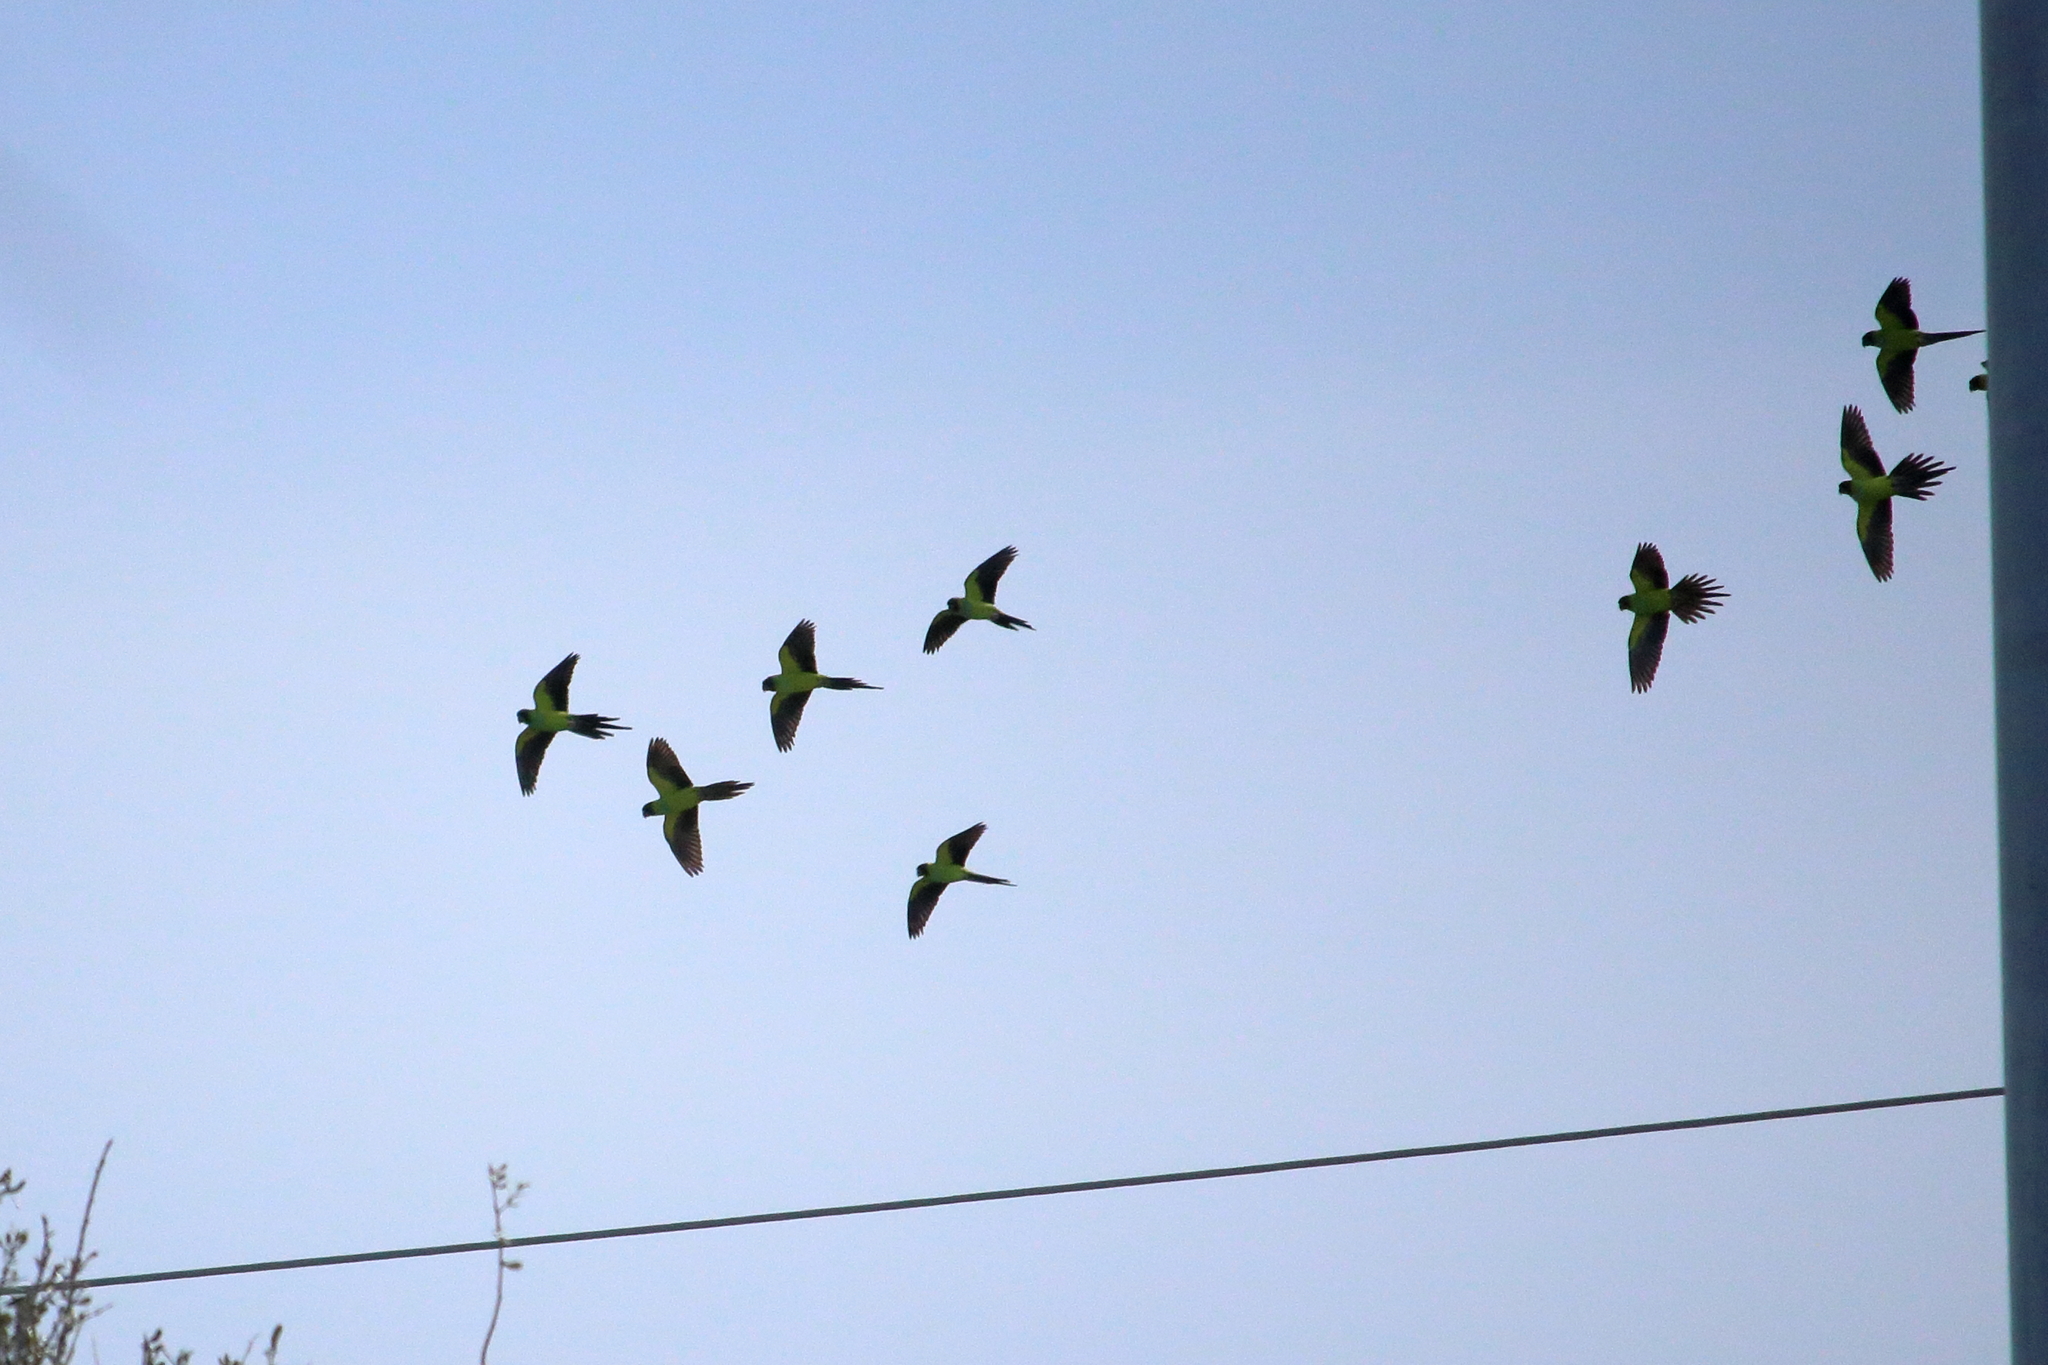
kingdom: Animalia
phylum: Chordata
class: Aves
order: Psittaciformes
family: Psittacidae
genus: Nandayus
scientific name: Nandayus nenday
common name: Nanday parakeet
